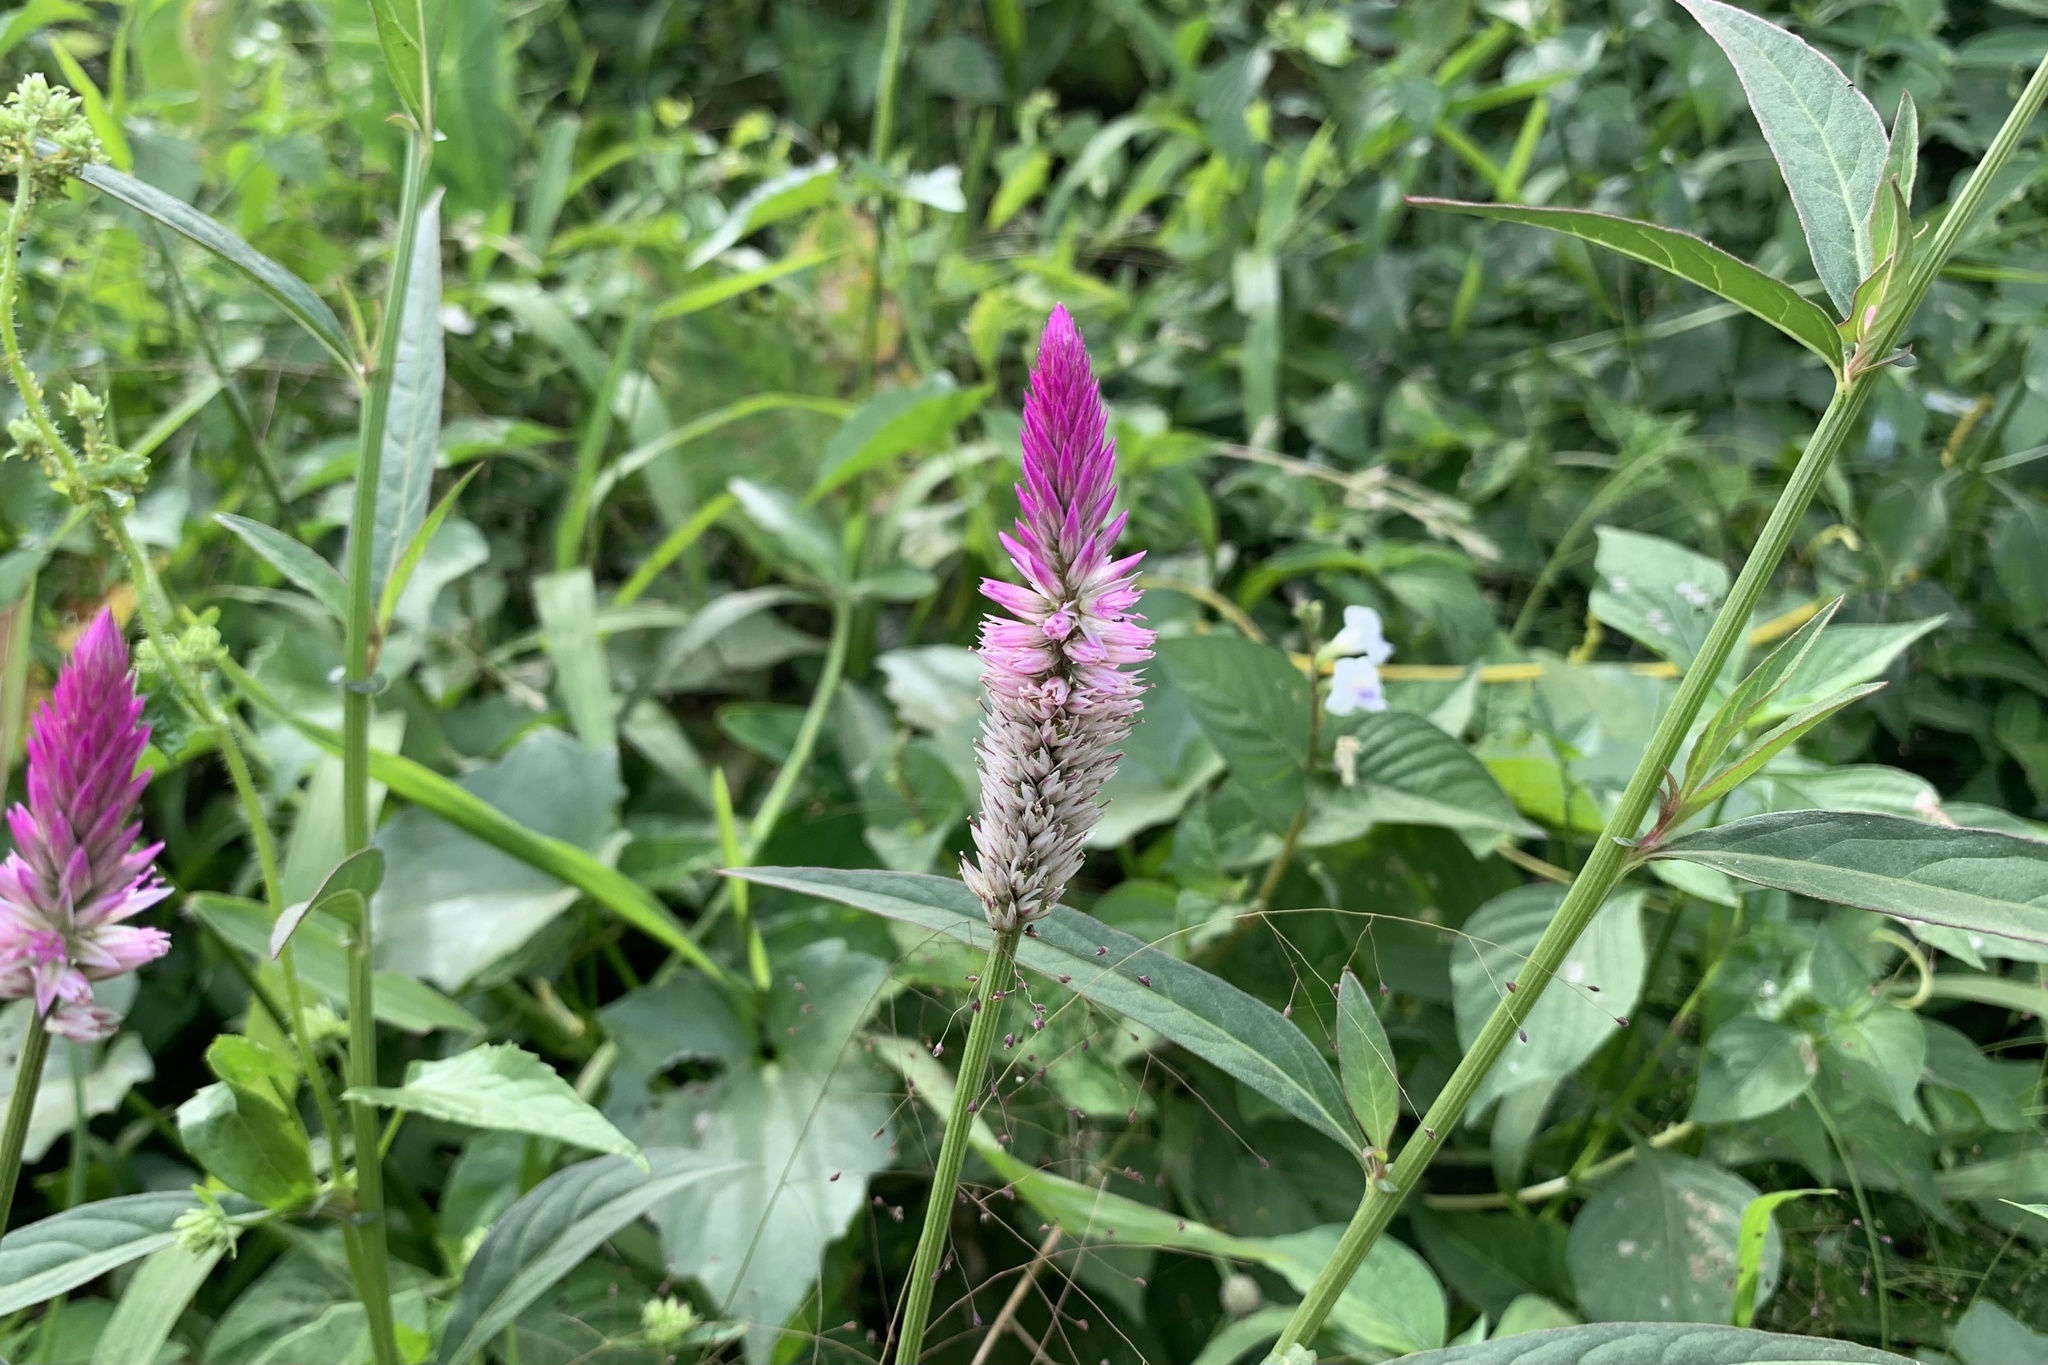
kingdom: Plantae
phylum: Tracheophyta
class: Magnoliopsida
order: Caryophyllales
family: Amaranthaceae
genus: Celosia
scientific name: Celosia argentea
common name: Feather cockscomb
